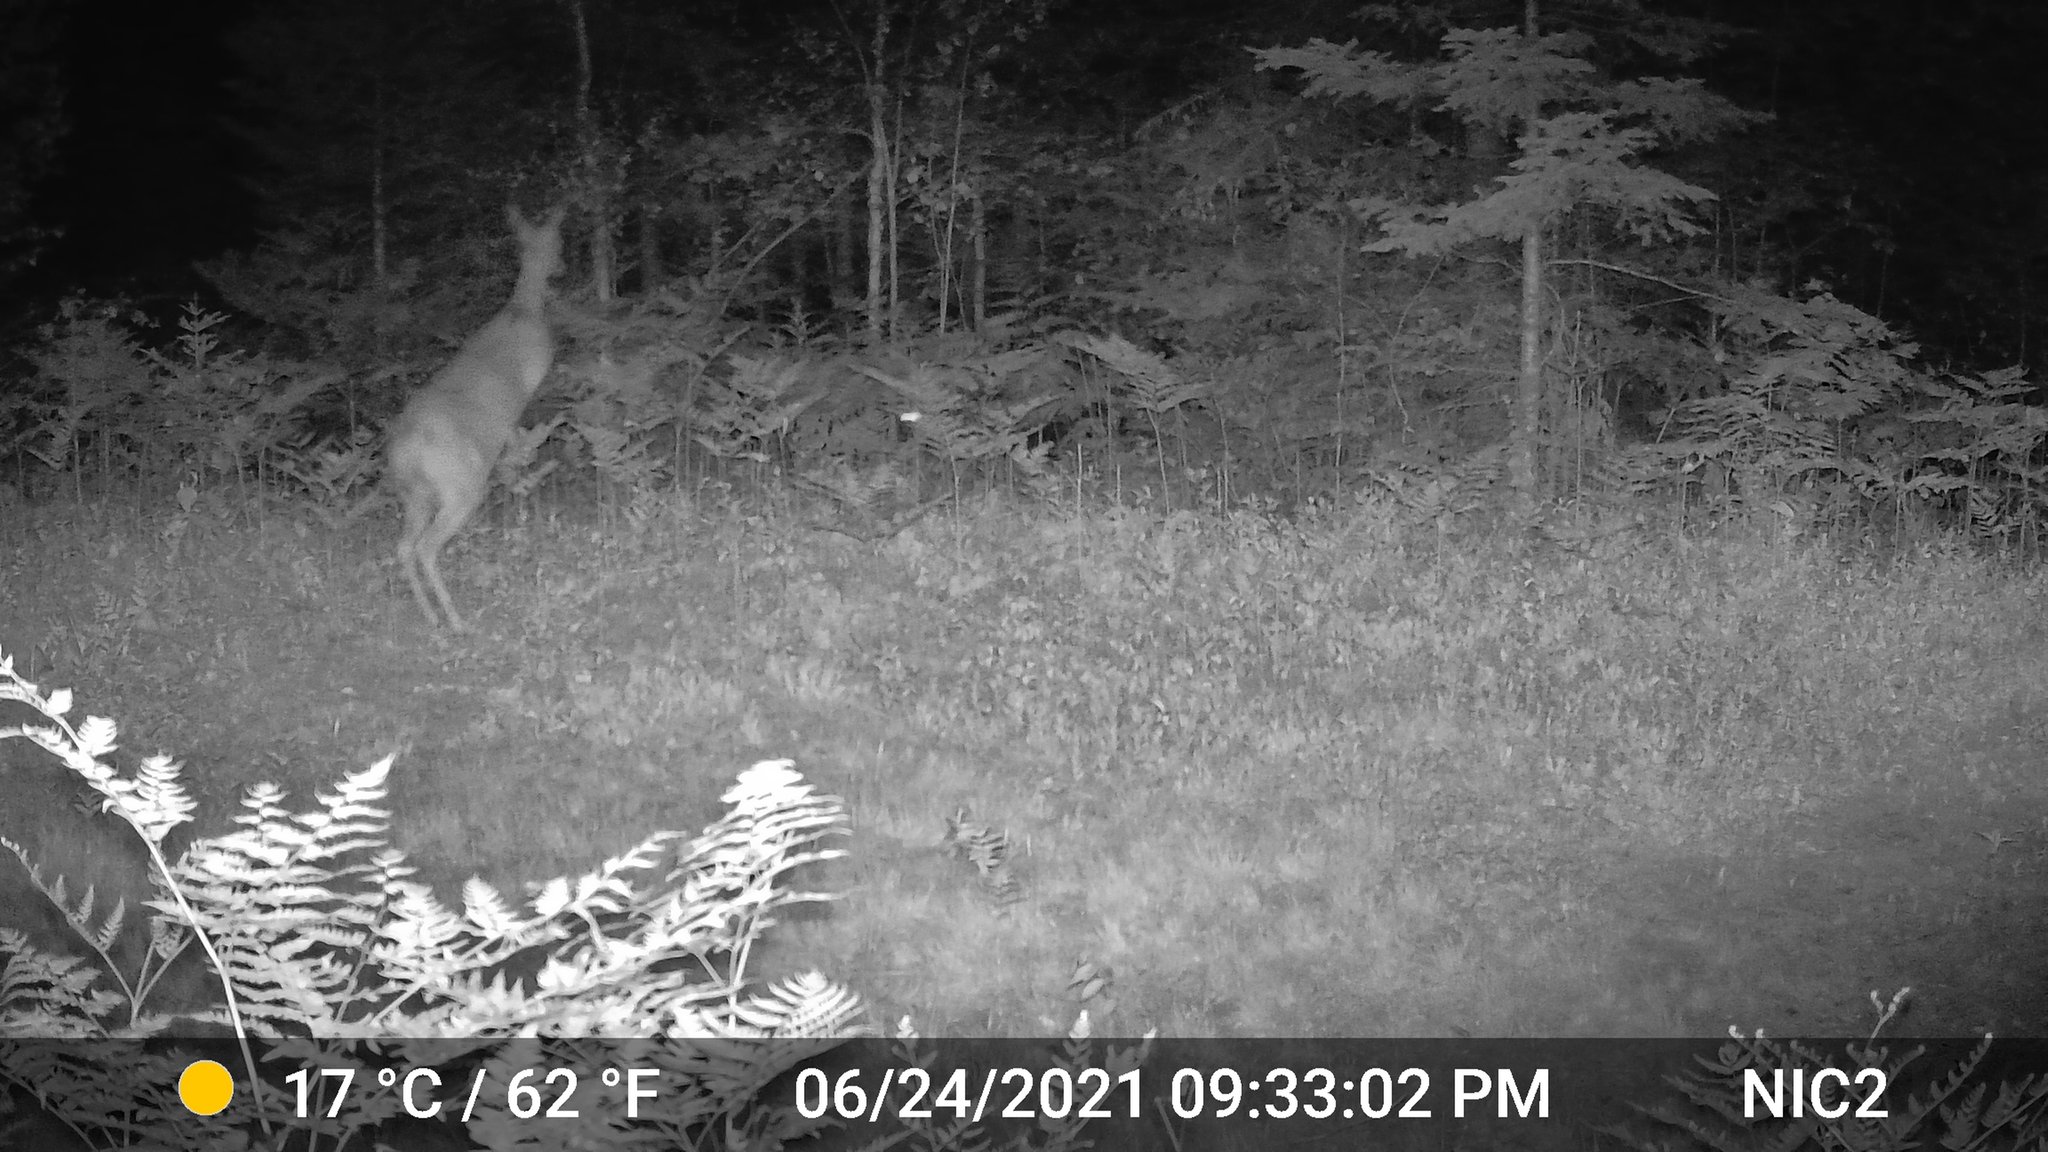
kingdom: Animalia
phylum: Chordata
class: Mammalia
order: Artiodactyla
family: Cervidae
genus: Odocoileus
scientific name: Odocoileus virginianus
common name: White-tailed deer
